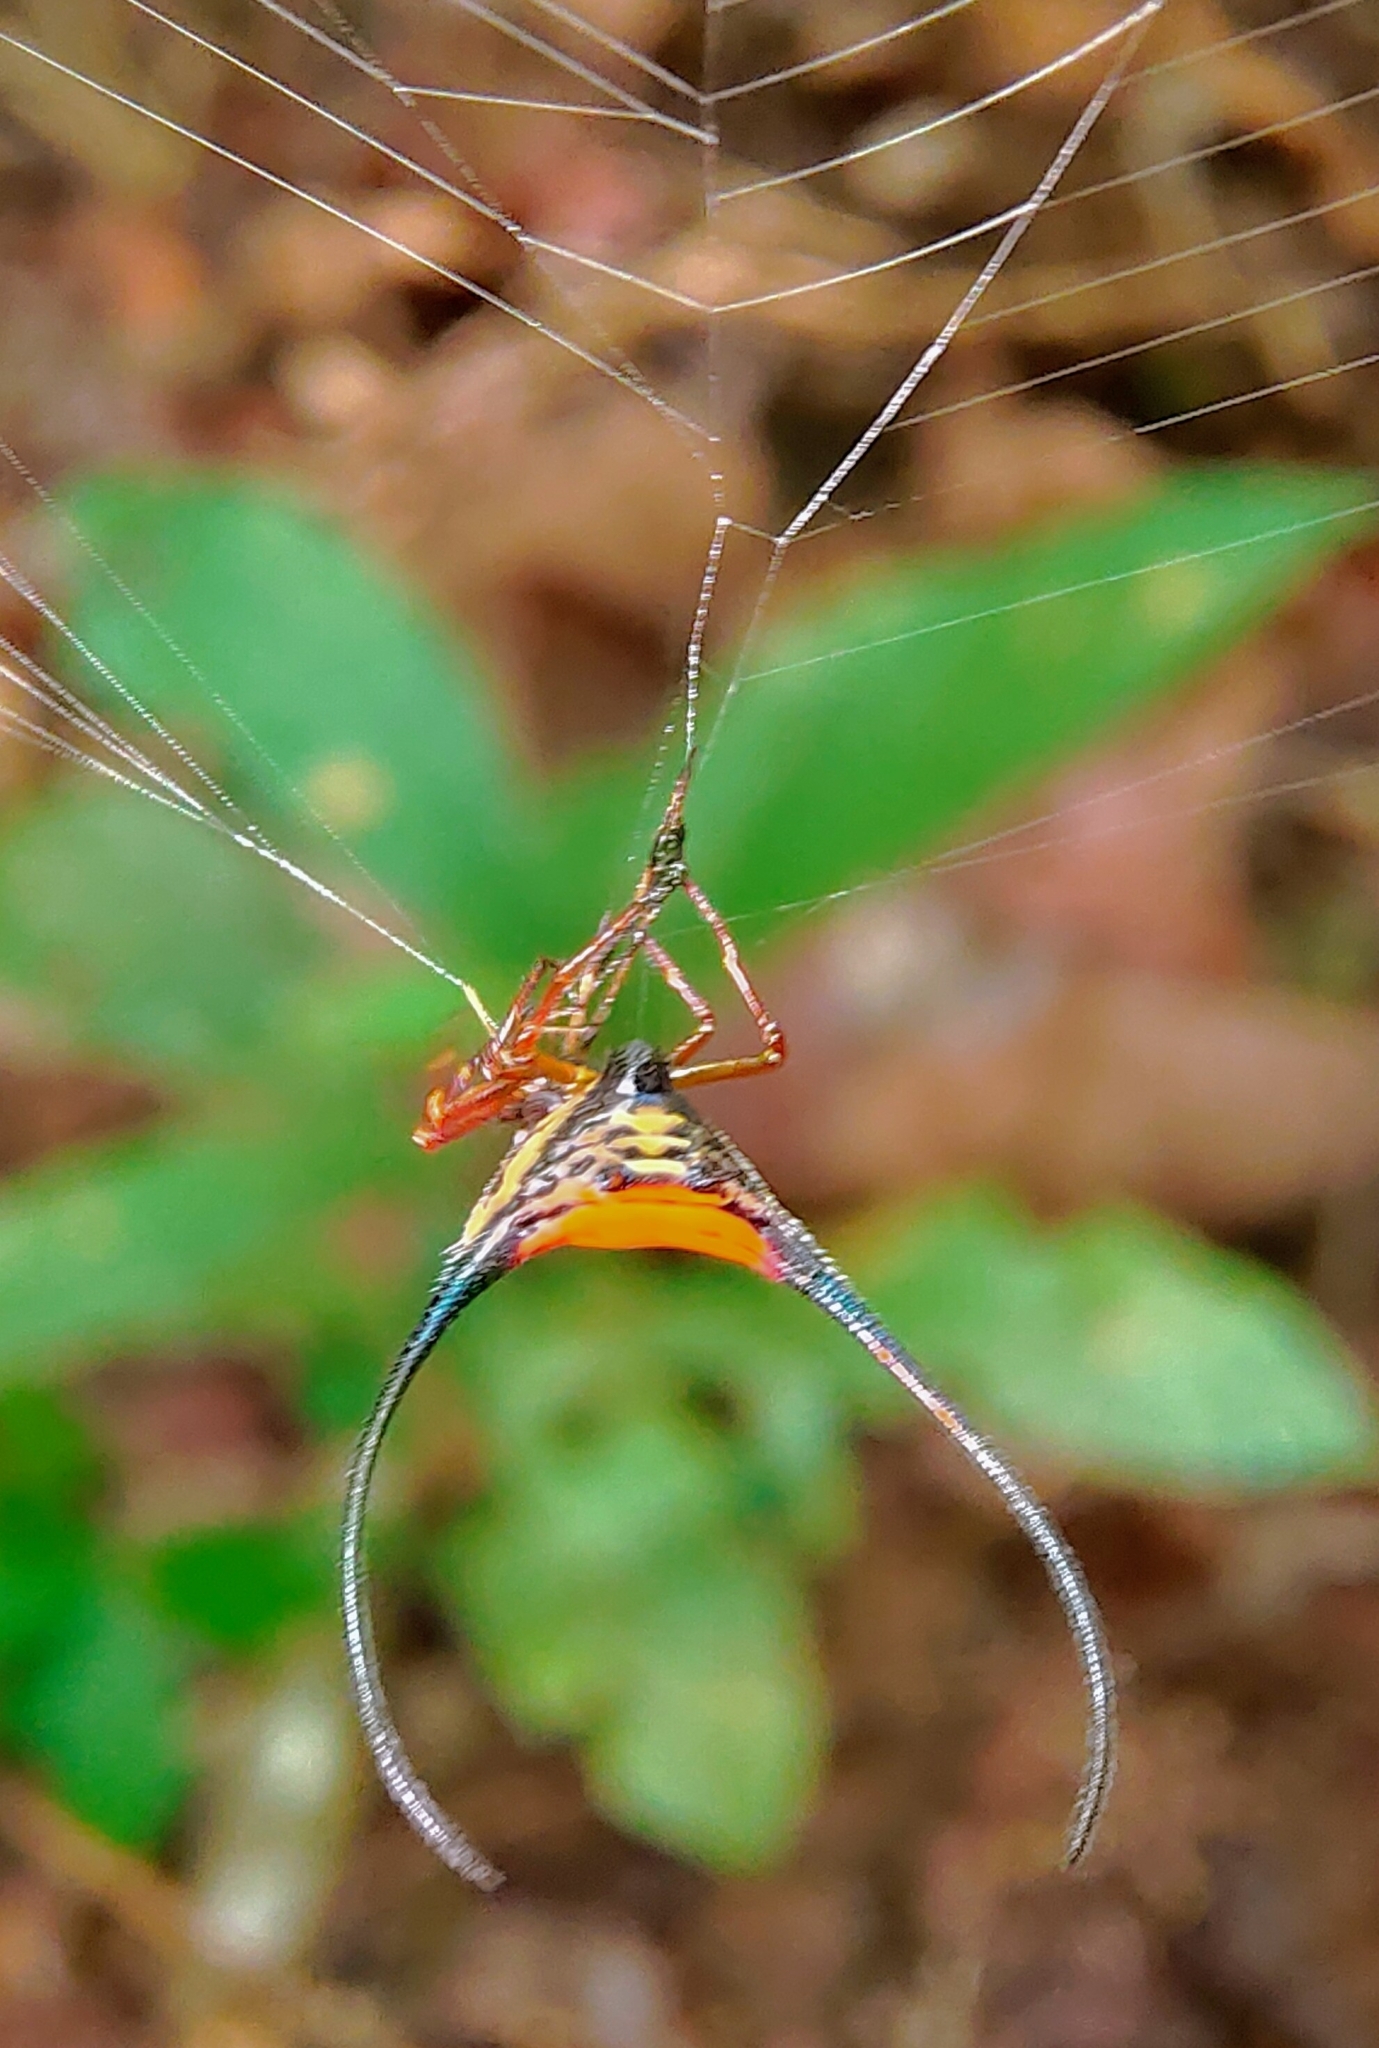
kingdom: Animalia
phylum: Arthropoda
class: Arachnida
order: Araneae
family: Araneidae
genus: Macracantha
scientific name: Macracantha arcuata
